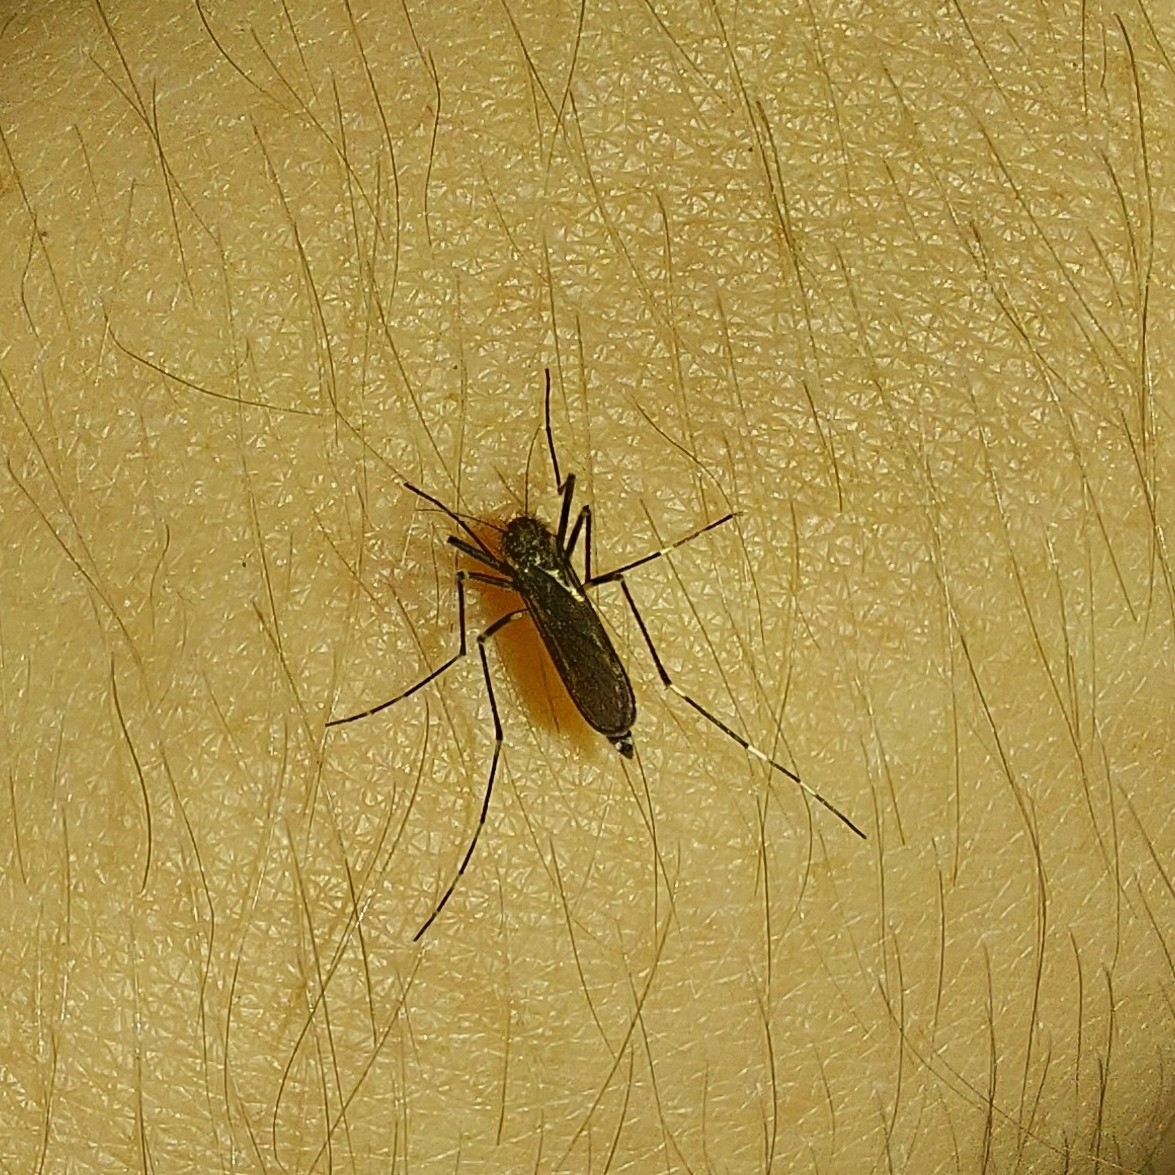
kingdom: Animalia
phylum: Arthropoda
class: Insecta
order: Diptera
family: Culicidae
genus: Aedes
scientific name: Aedes japonicus
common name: Asian bush mosquito
